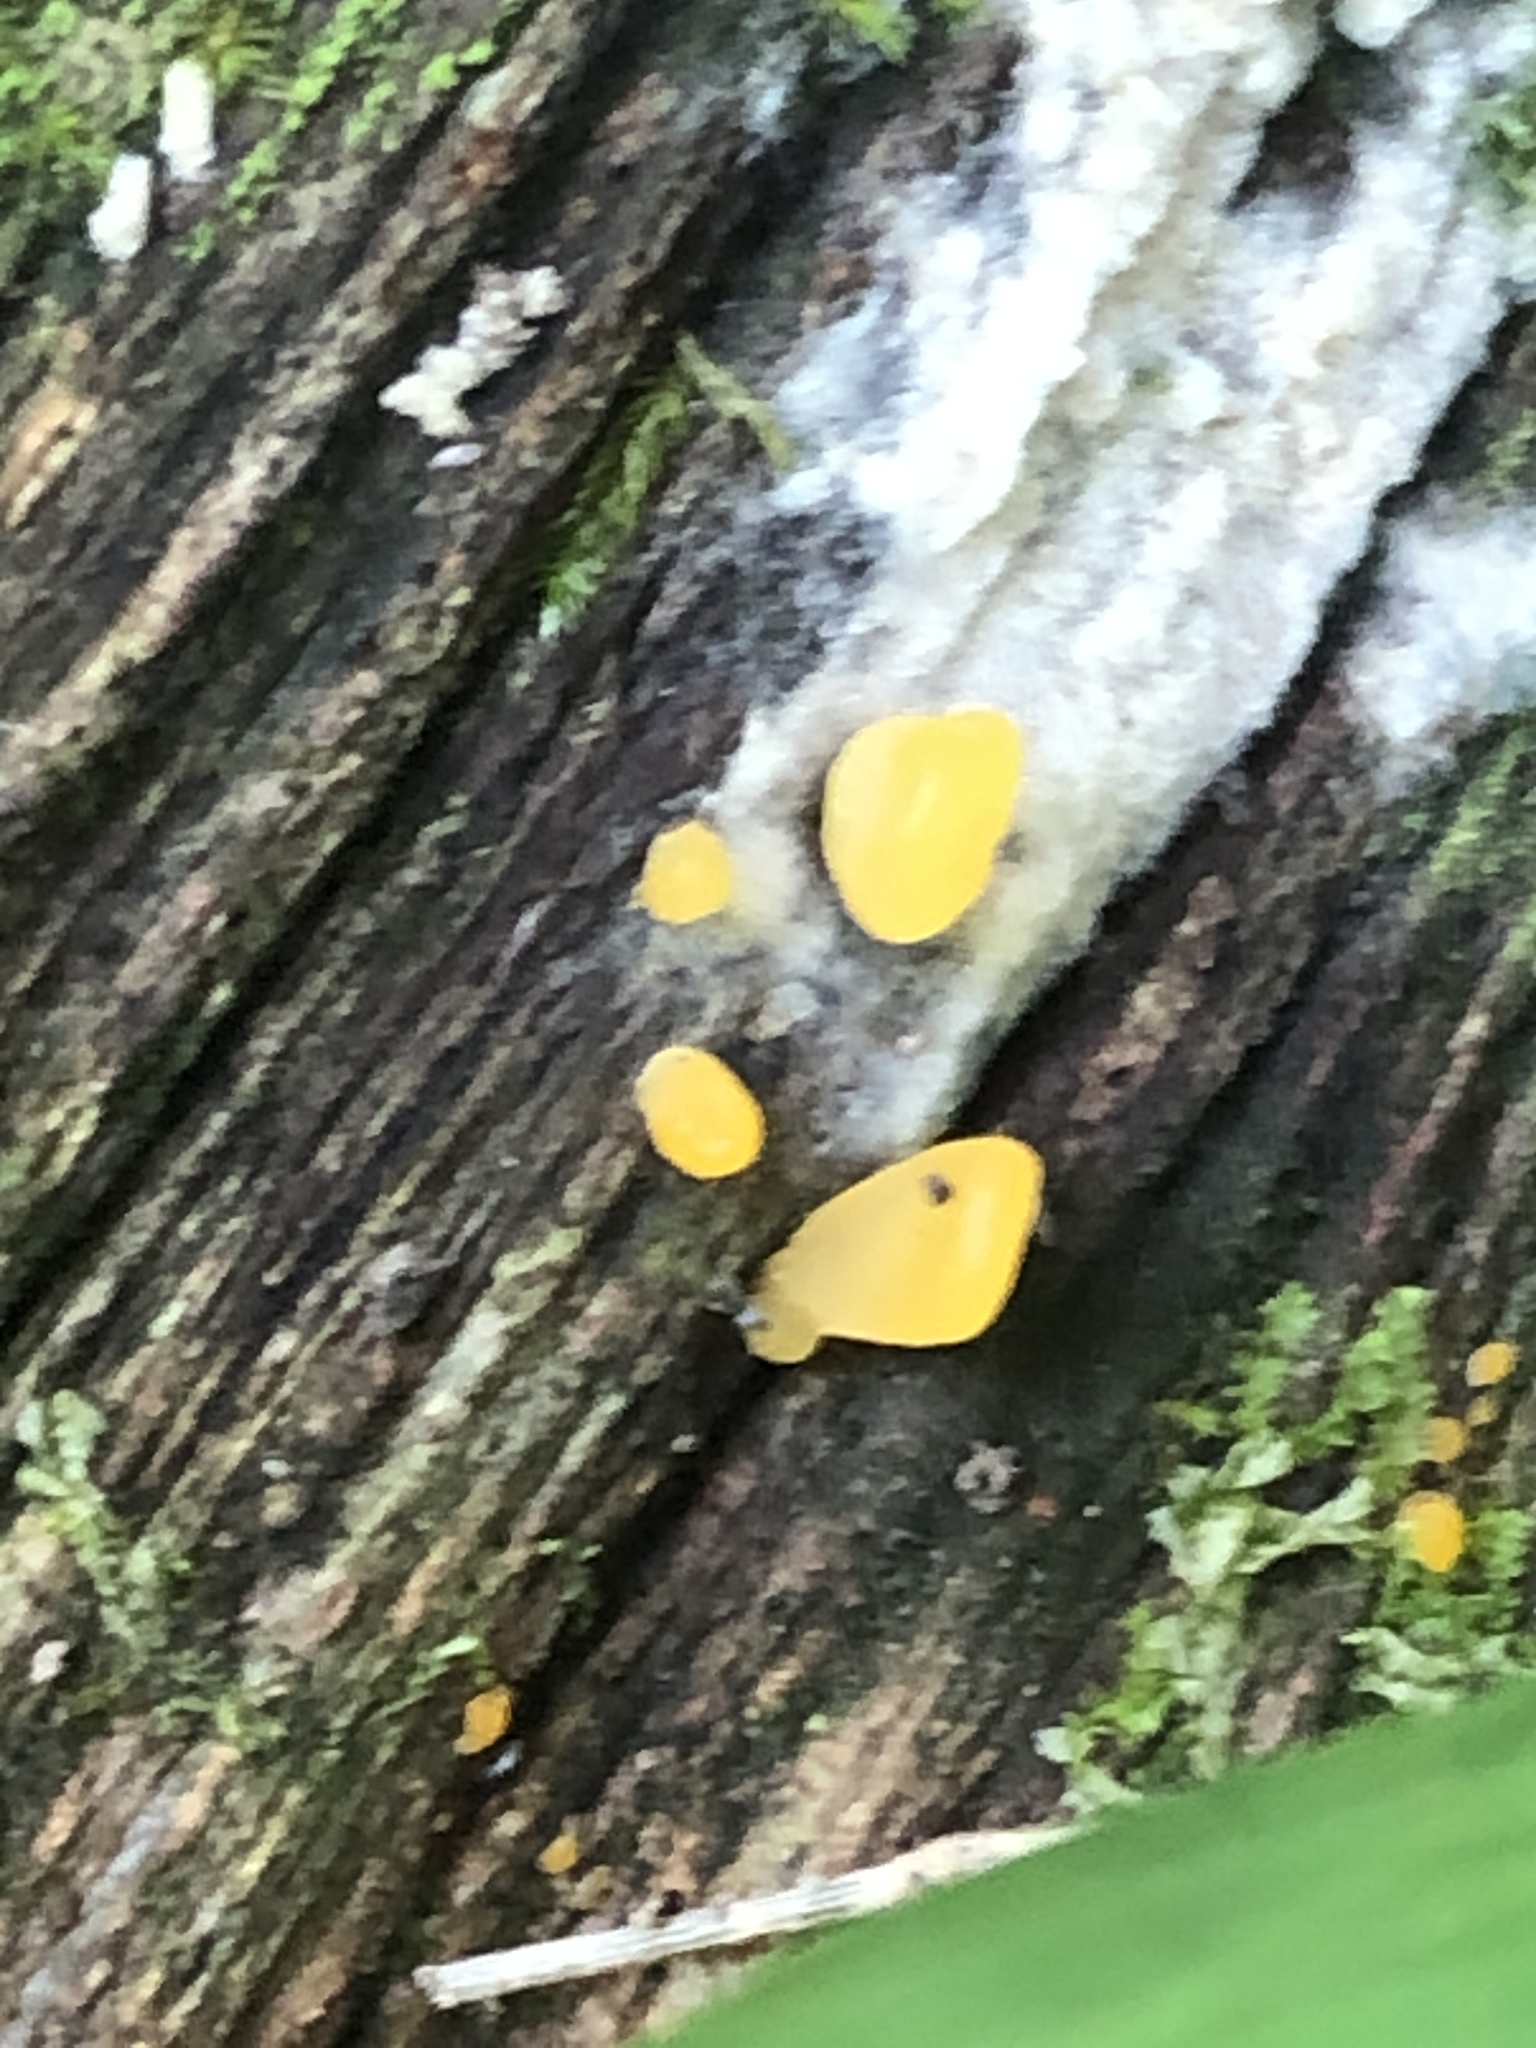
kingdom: Fungi
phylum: Basidiomycota
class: Dacrymycetes
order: Dacrymycetales
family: Dacrymycetaceae
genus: Dacrymyces
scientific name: Dacrymyces spathularius
